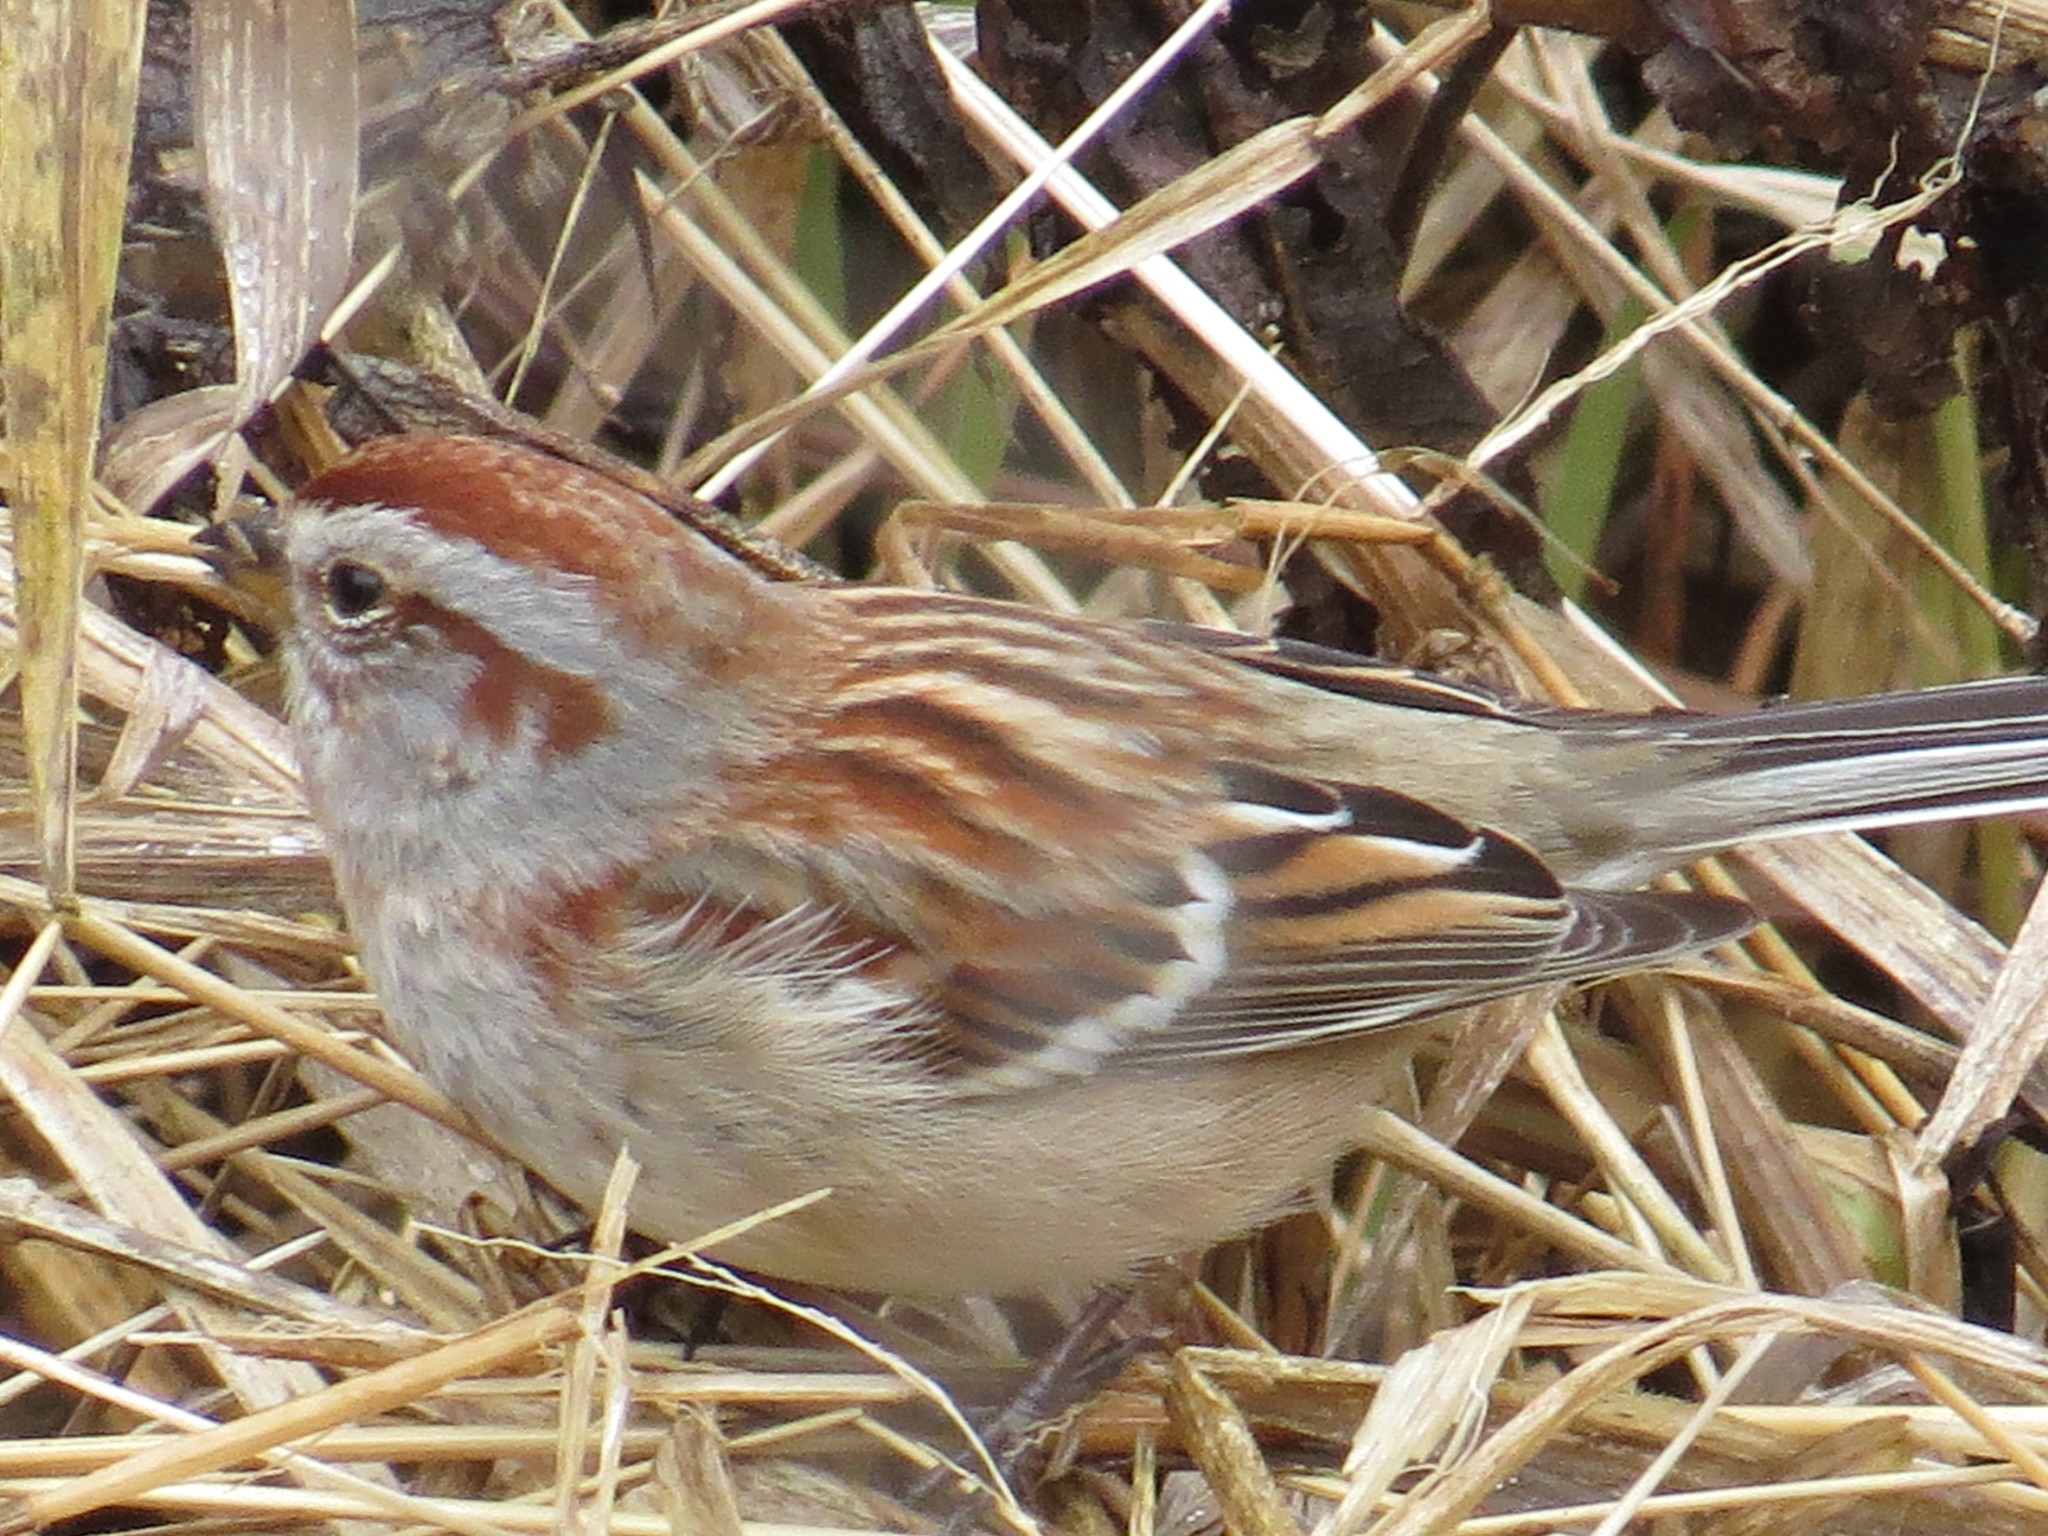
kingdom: Animalia
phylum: Chordata
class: Aves
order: Passeriformes
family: Passerellidae
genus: Spizelloides
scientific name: Spizelloides arborea
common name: American tree sparrow
